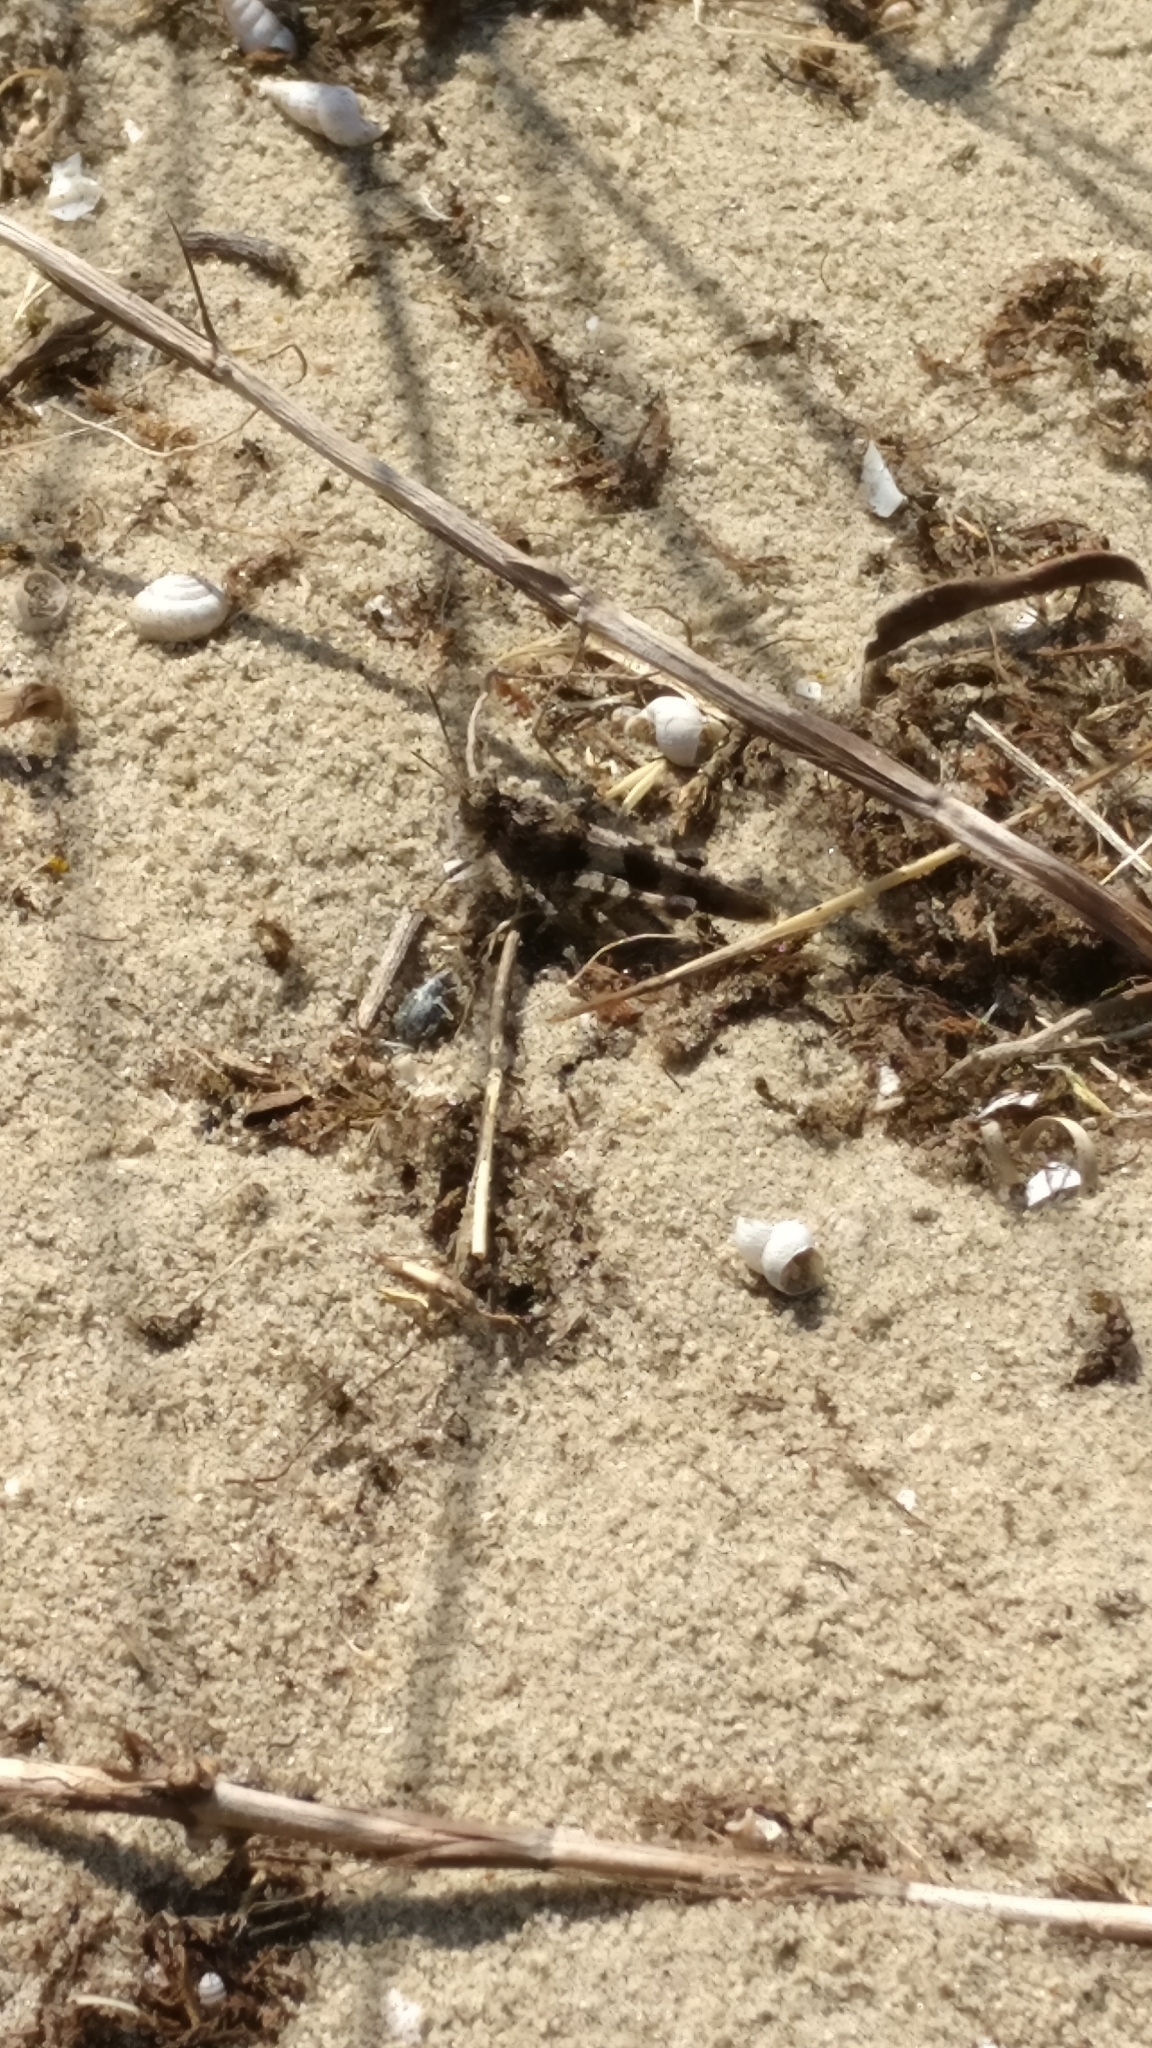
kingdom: Animalia
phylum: Arthropoda
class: Insecta
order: Orthoptera
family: Acrididae
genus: Oedipoda
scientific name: Oedipoda caerulescens
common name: Blue-winged grasshopper
